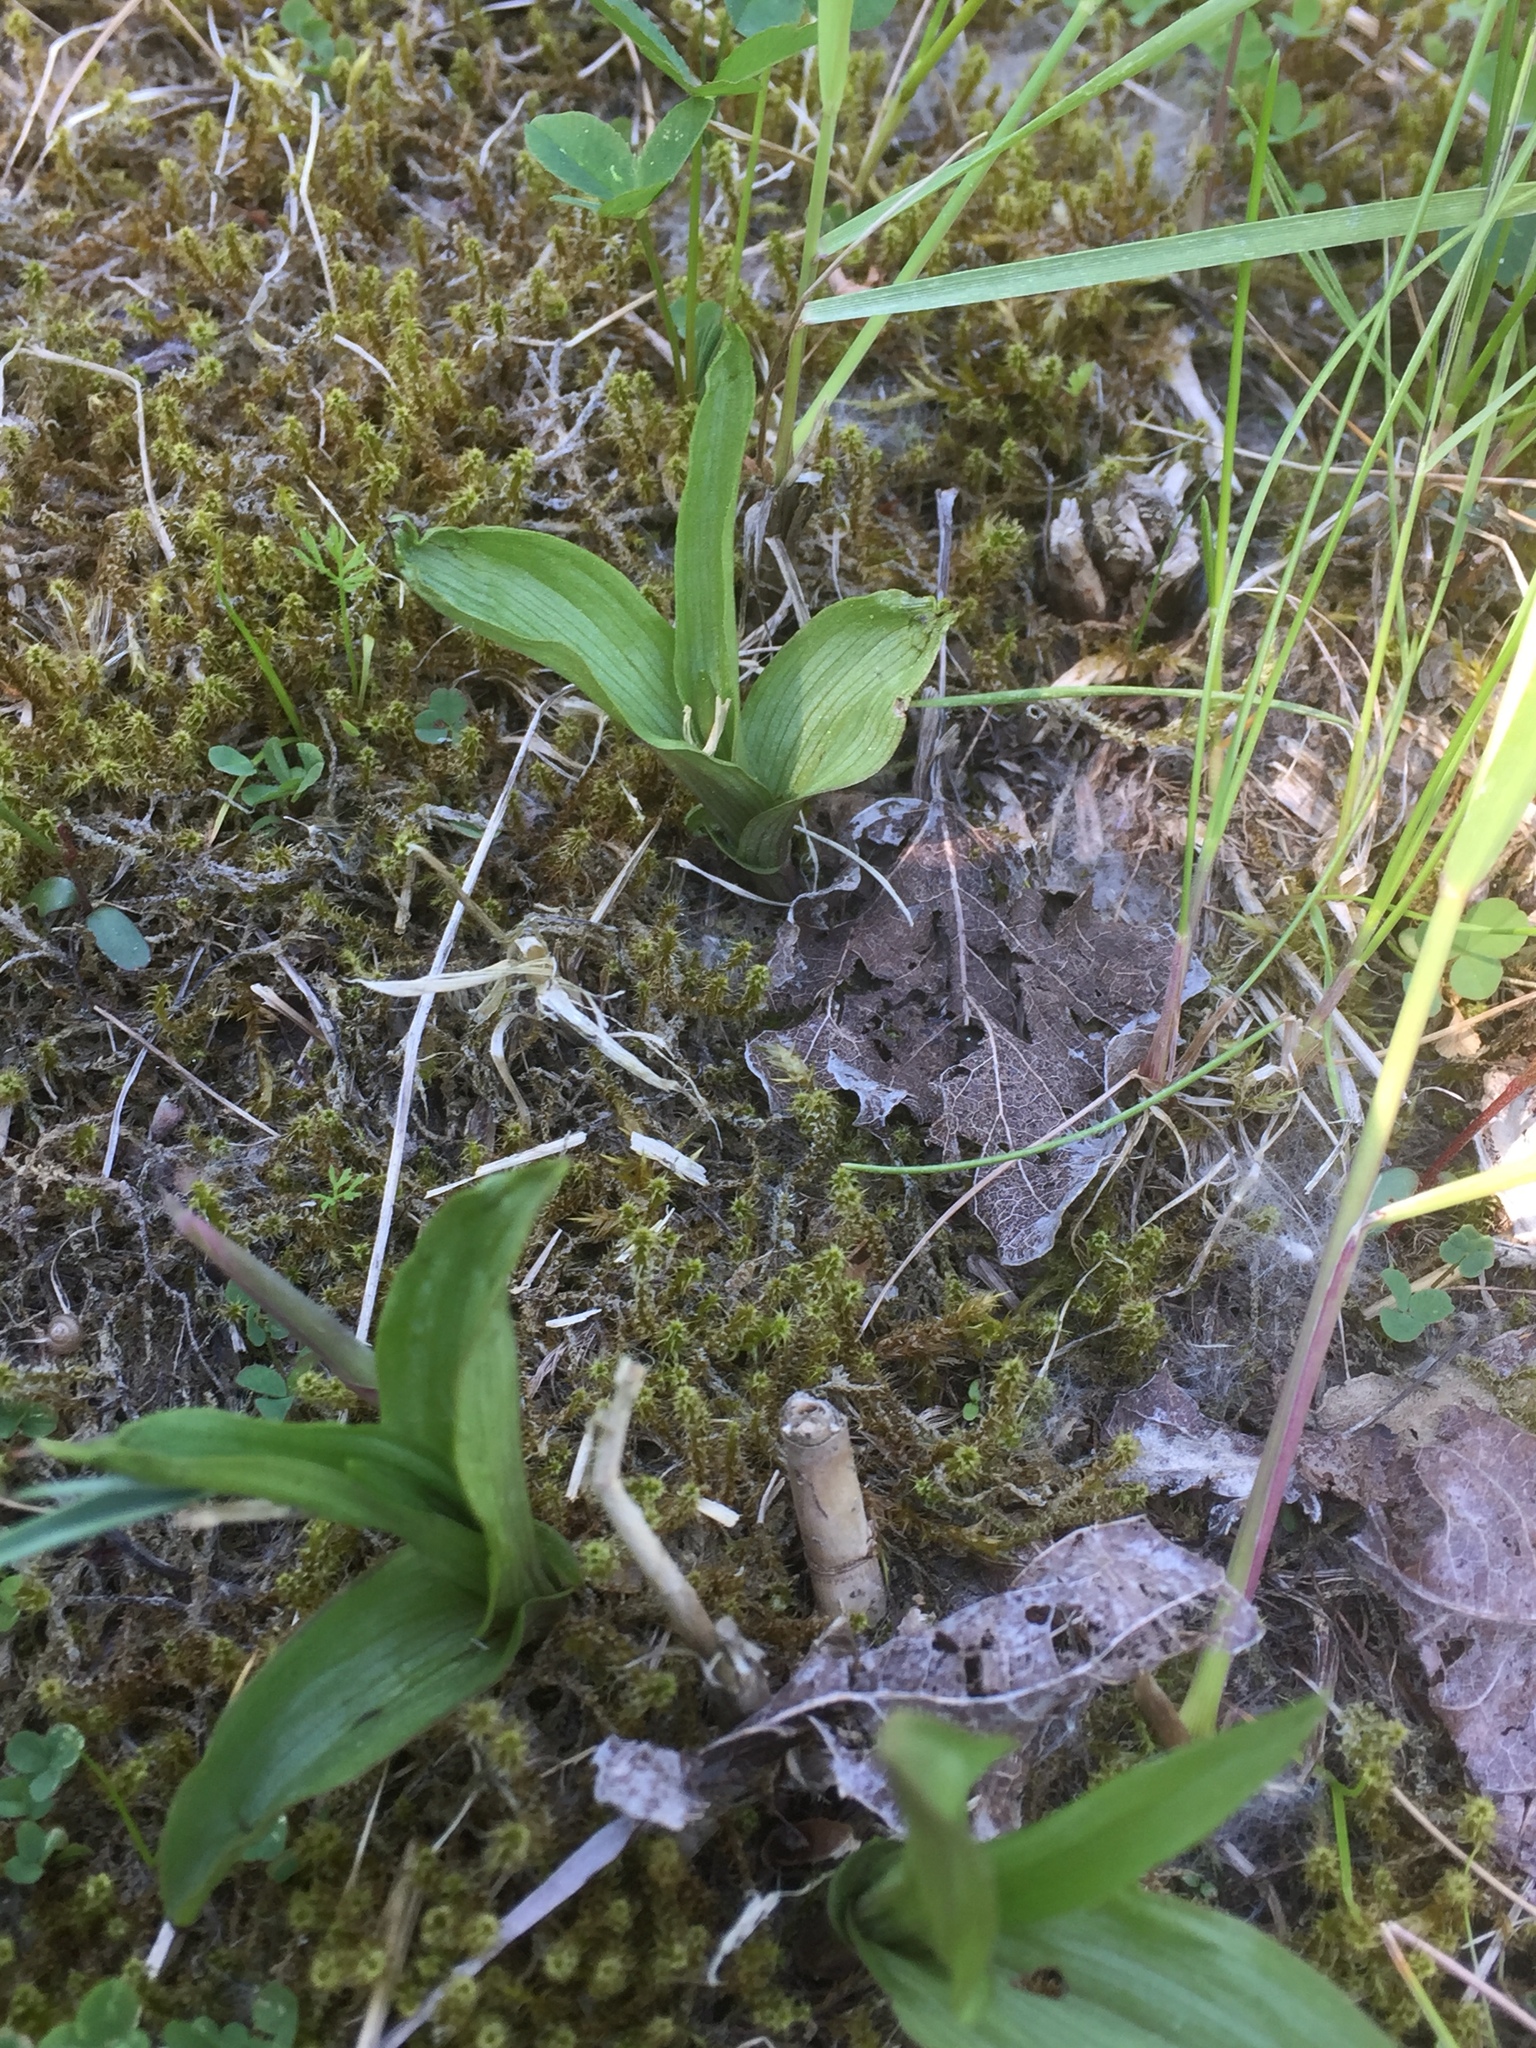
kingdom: Plantae
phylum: Tracheophyta
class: Liliopsida
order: Asparagales
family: Orchidaceae
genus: Epipactis
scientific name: Epipactis palustris
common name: Marsh helleborine
